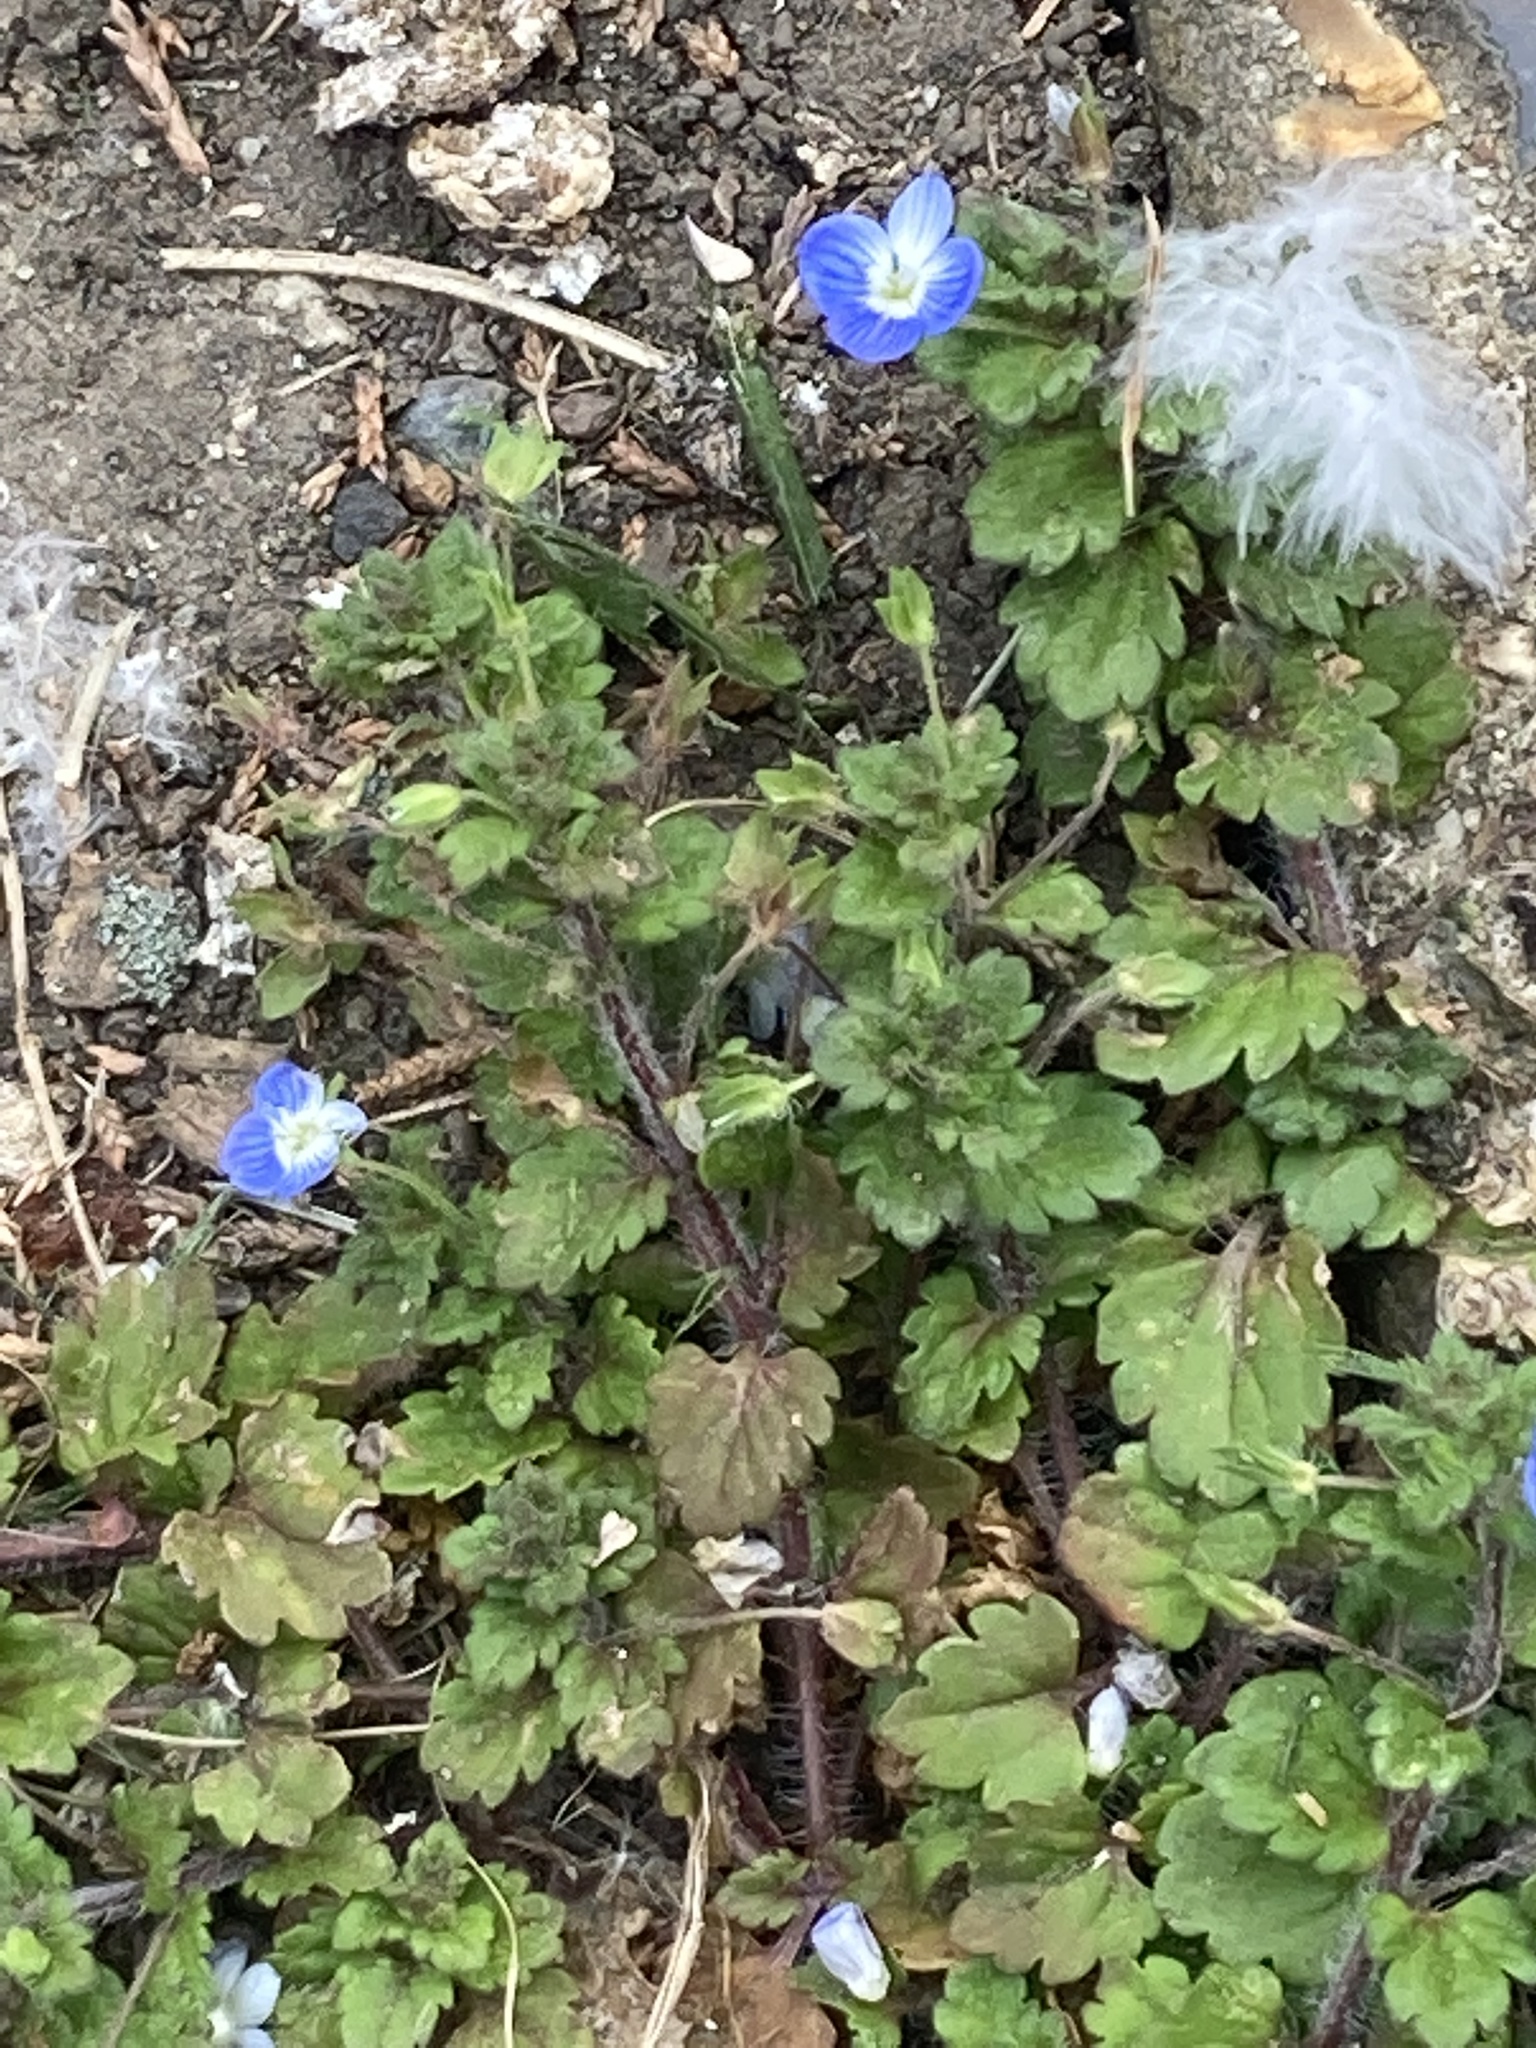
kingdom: Plantae
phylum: Tracheophyta
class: Magnoliopsida
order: Lamiales
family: Plantaginaceae
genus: Veronica
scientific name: Veronica persica
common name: Common field-speedwell
